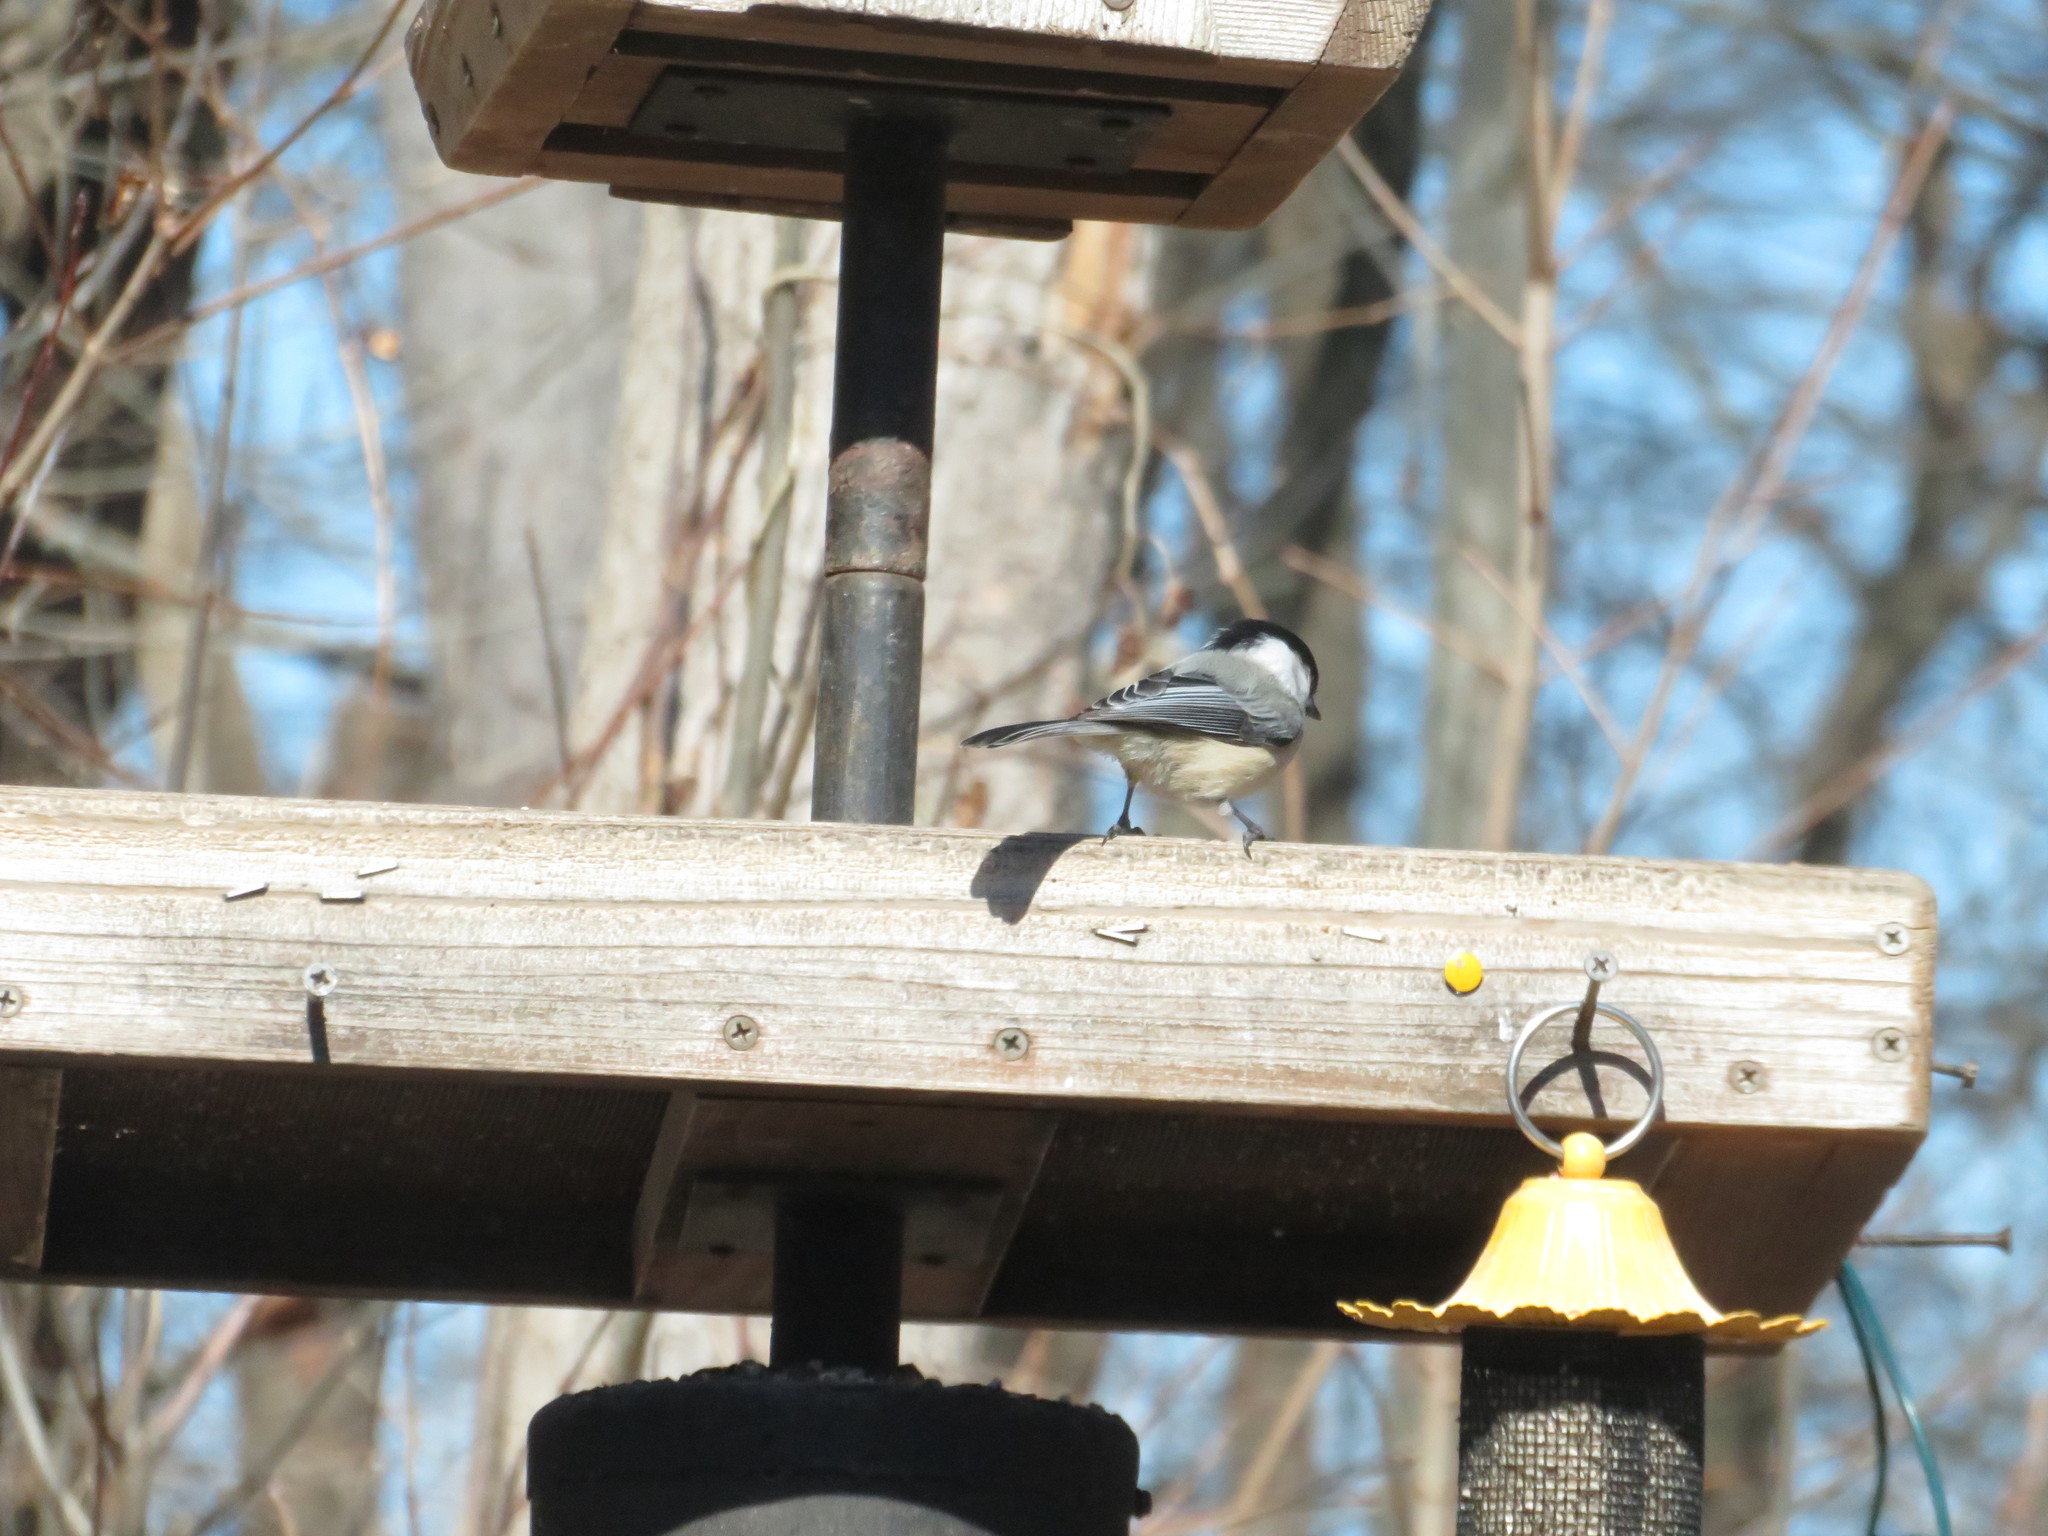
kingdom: Animalia
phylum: Chordata
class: Aves
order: Passeriformes
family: Paridae
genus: Poecile
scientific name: Poecile atricapillus
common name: Black-capped chickadee
